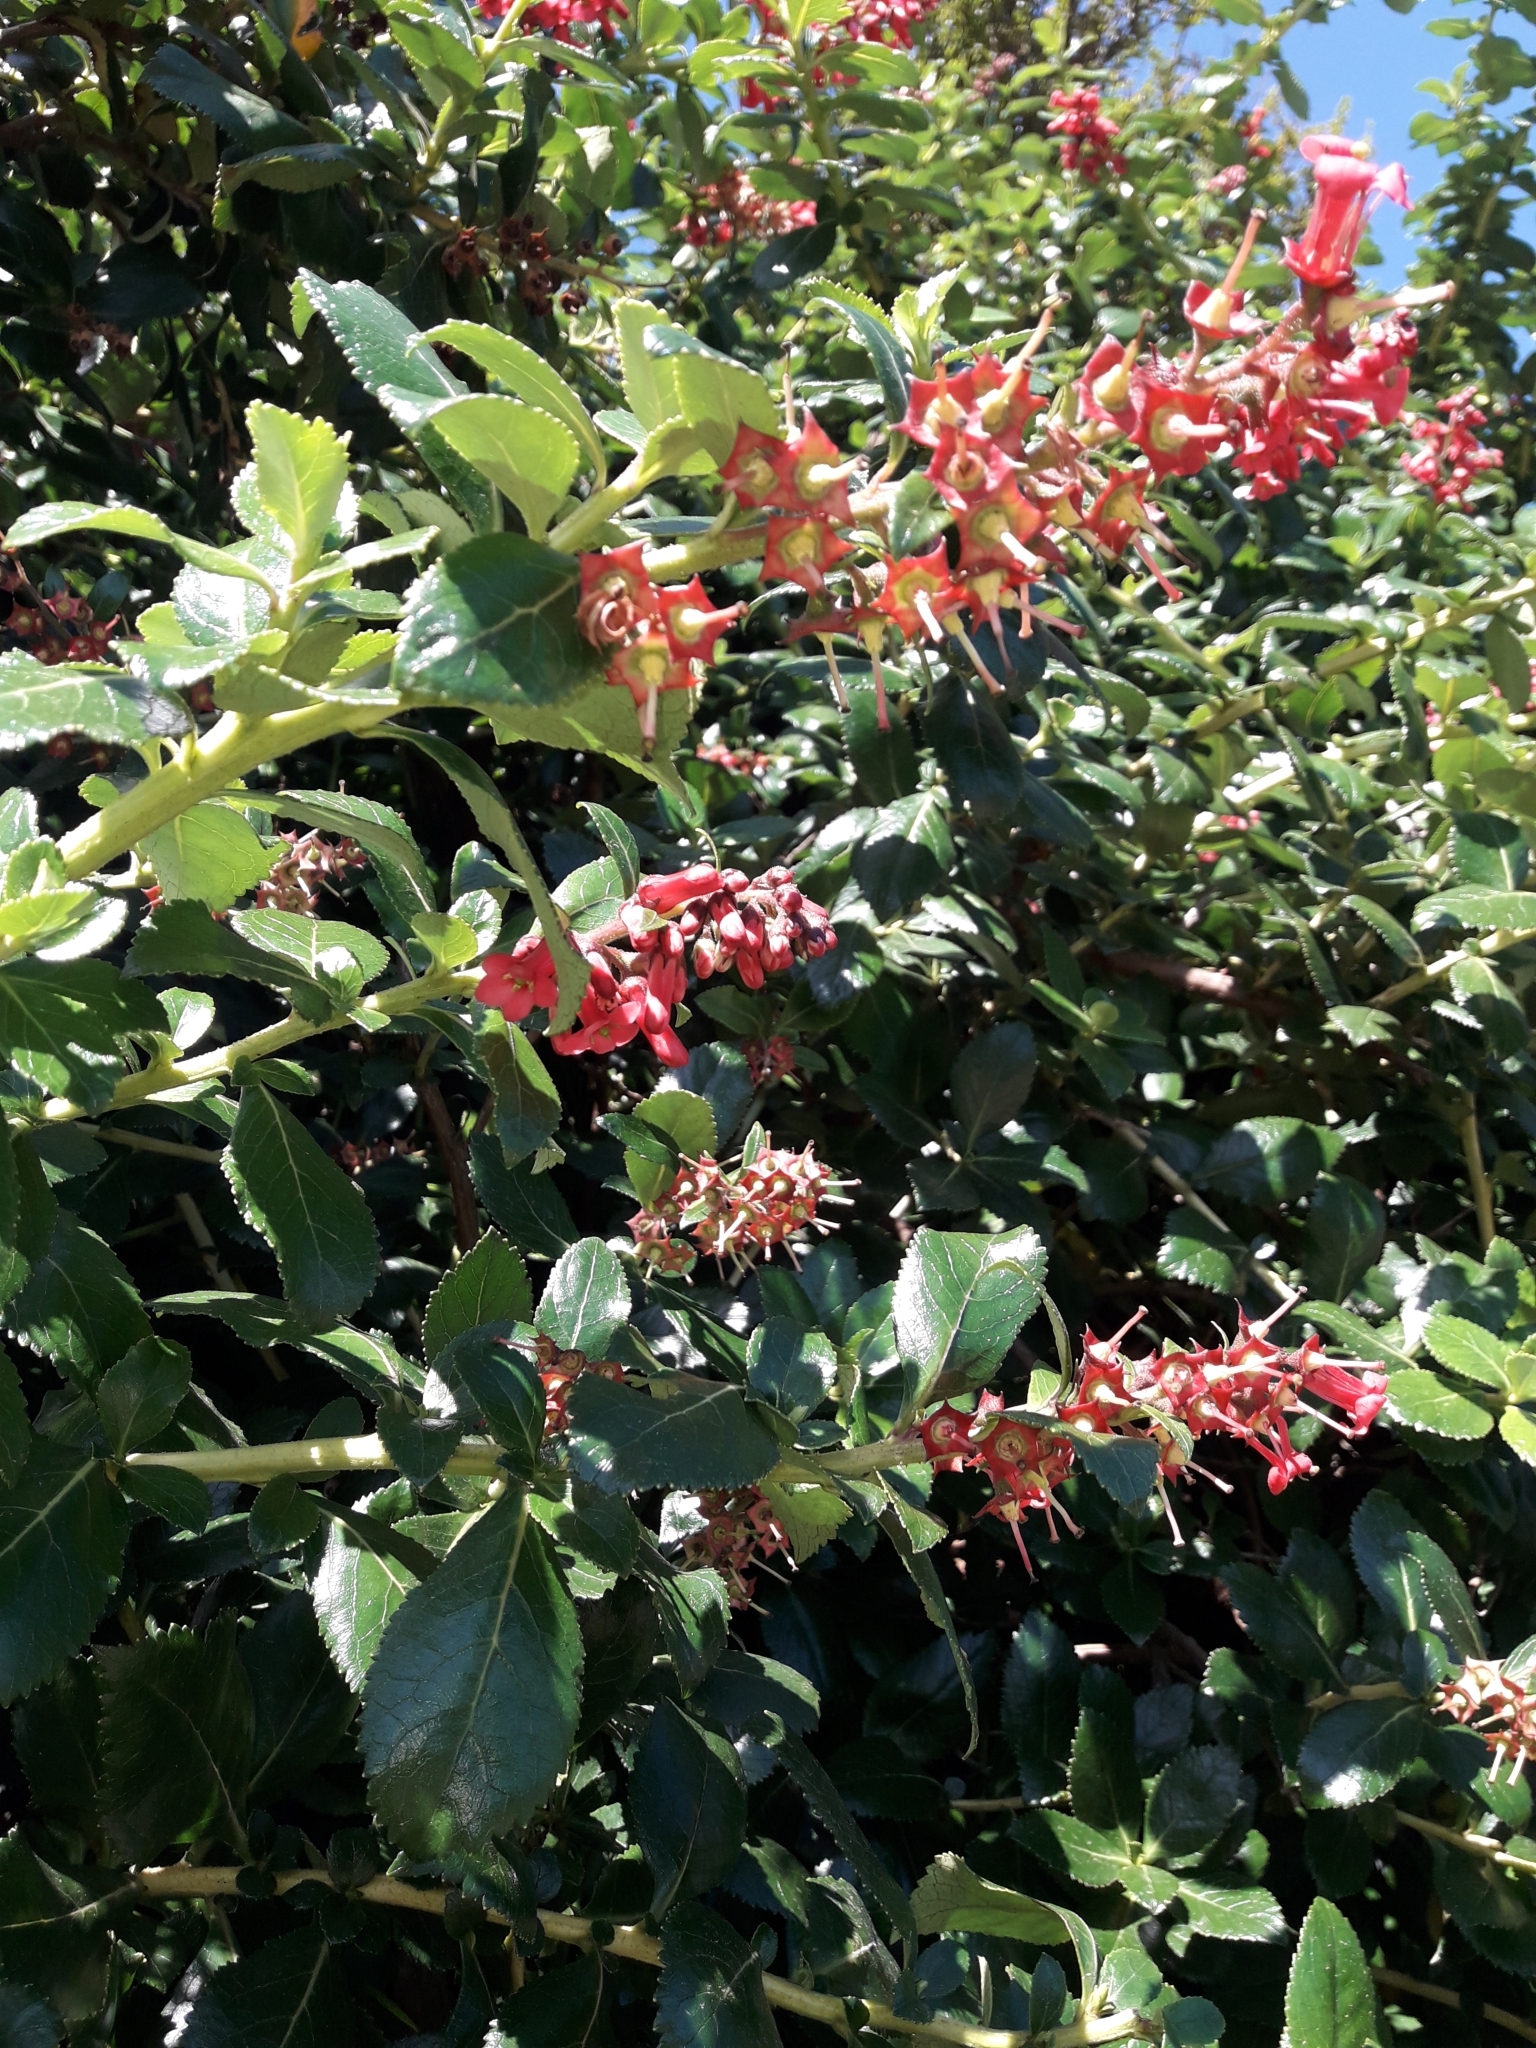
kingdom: Plantae
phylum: Tracheophyta
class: Magnoliopsida
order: Escalloniales
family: Escalloniaceae
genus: Escallonia
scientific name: Escallonia rubra
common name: Redclaws
